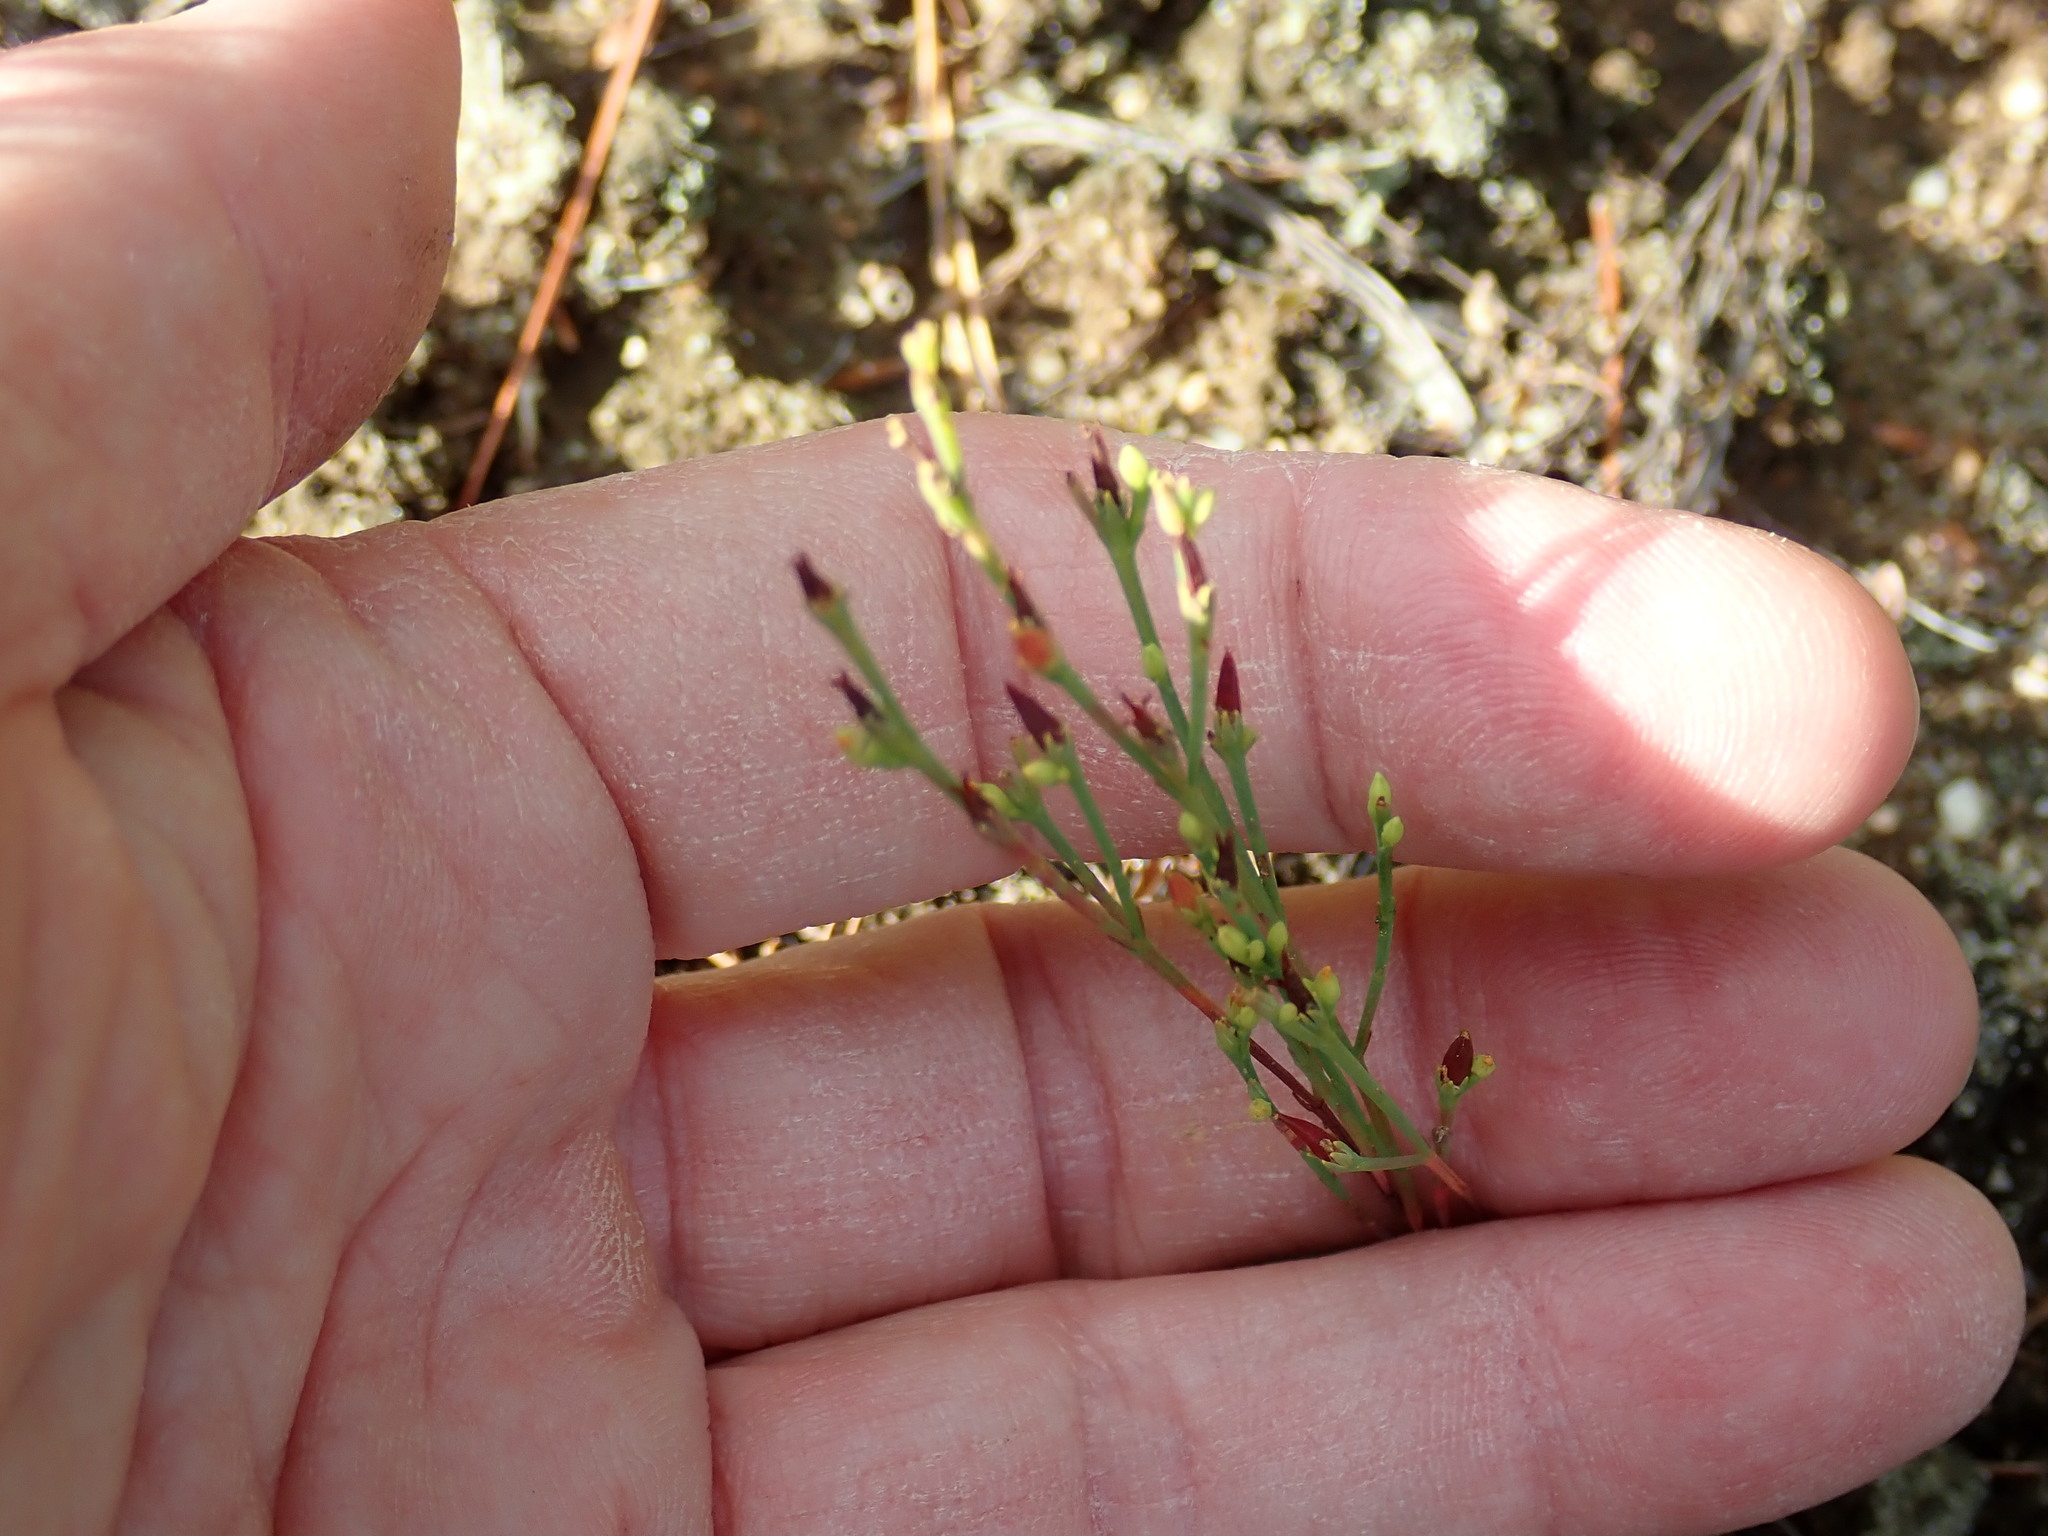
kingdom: Plantae
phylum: Tracheophyta
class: Magnoliopsida
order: Malpighiales
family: Hypericaceae
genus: Hypericum
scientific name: Hypericum gentianoides
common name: Gentian-leaved st. john's-wort
